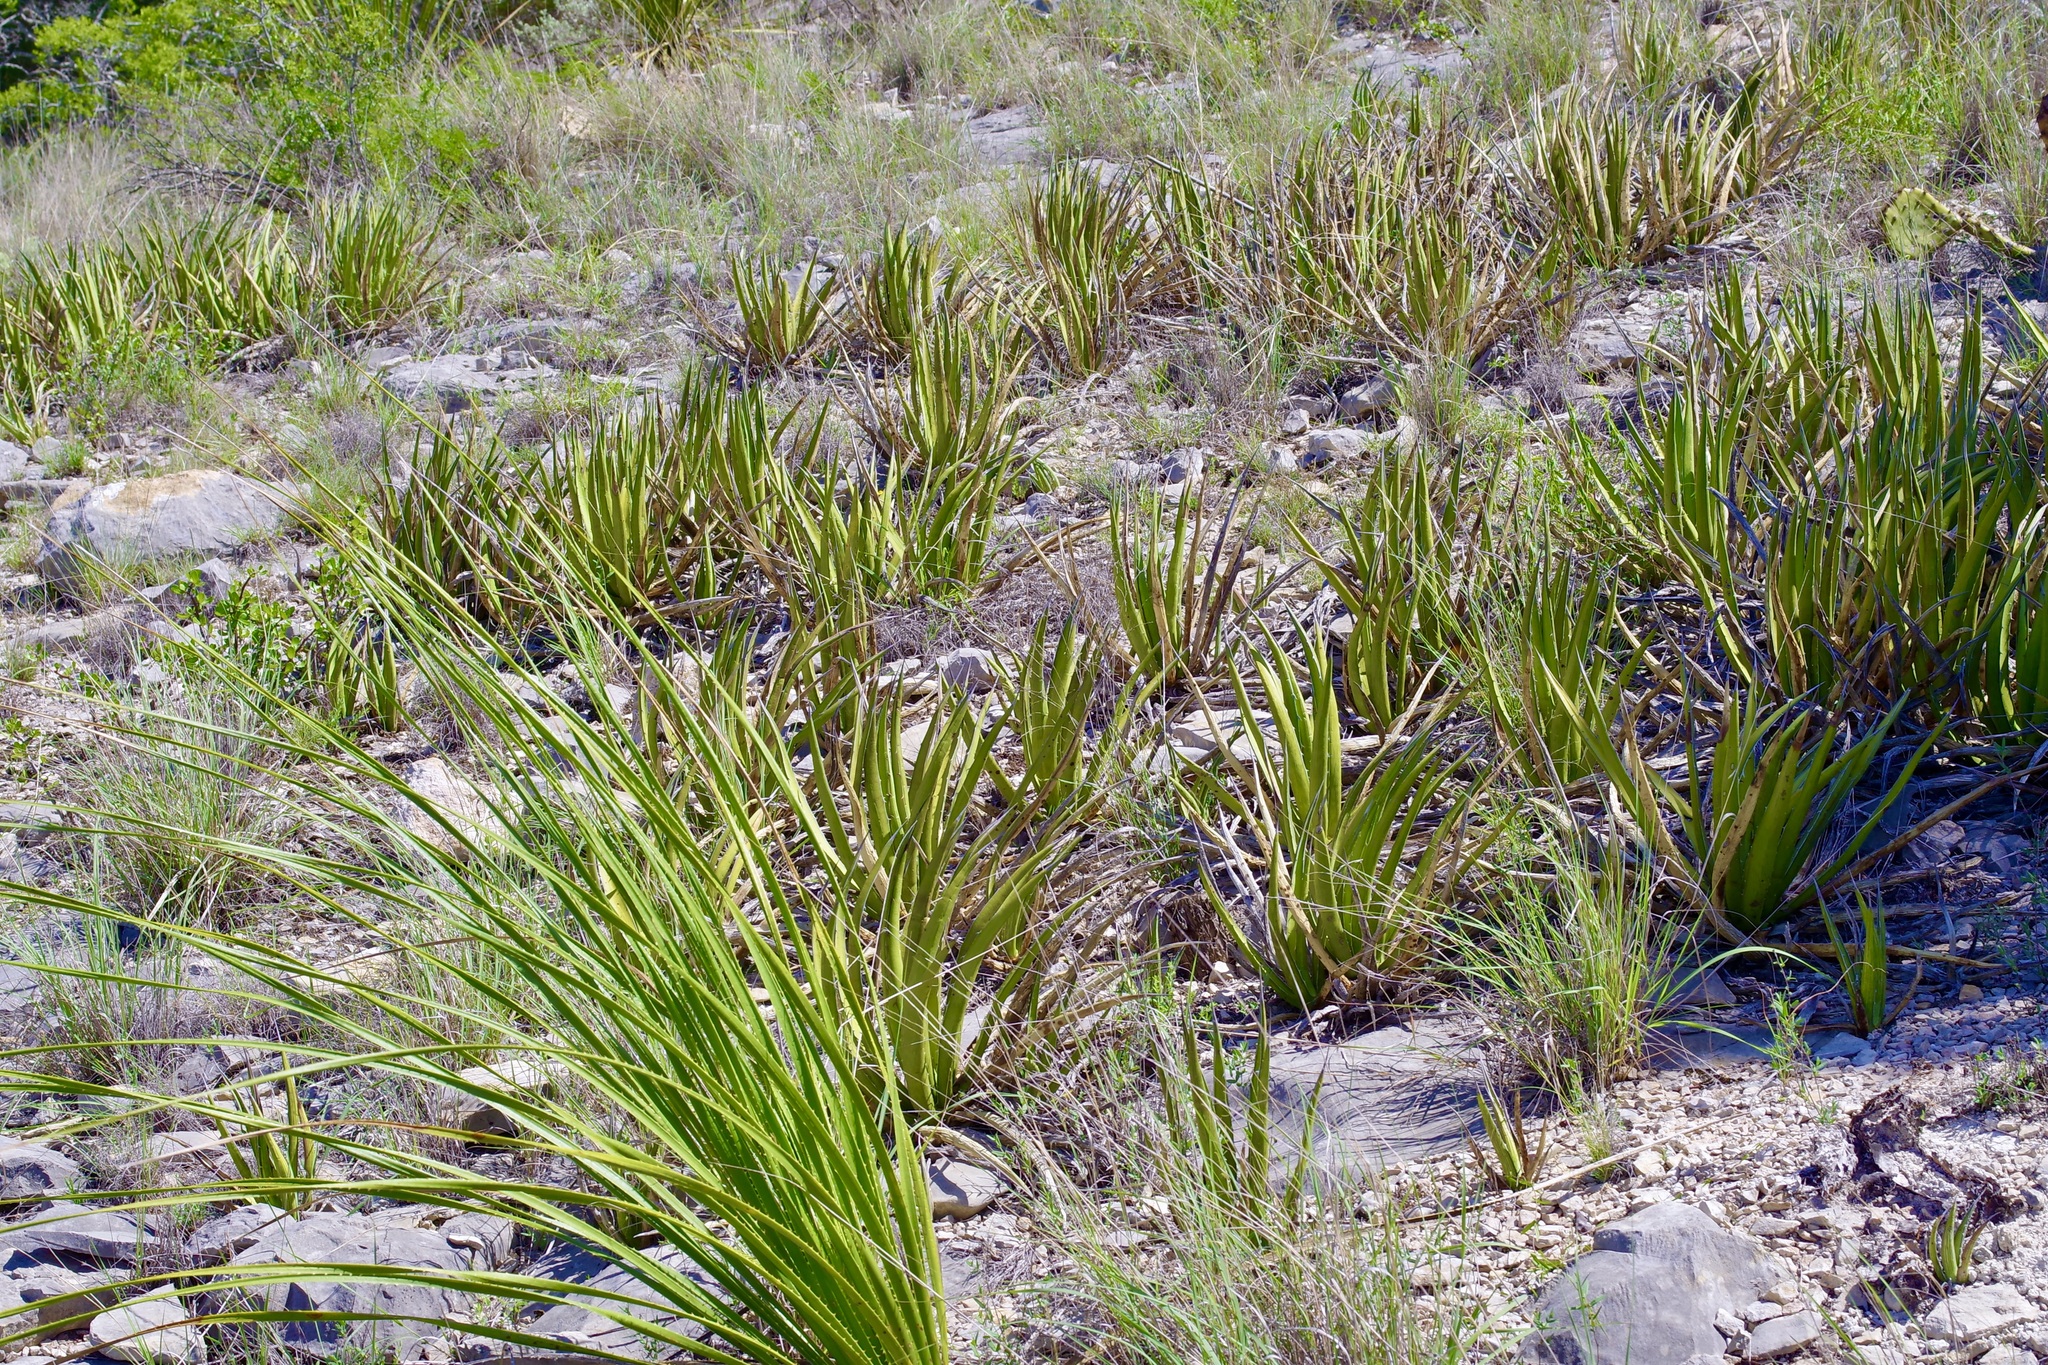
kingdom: Plantae
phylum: Tracheophyta
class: Liliopsida
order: Asparagales
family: Asparagaceae
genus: Agave
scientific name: Agave lechuguilla
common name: Lecheguilla agave
